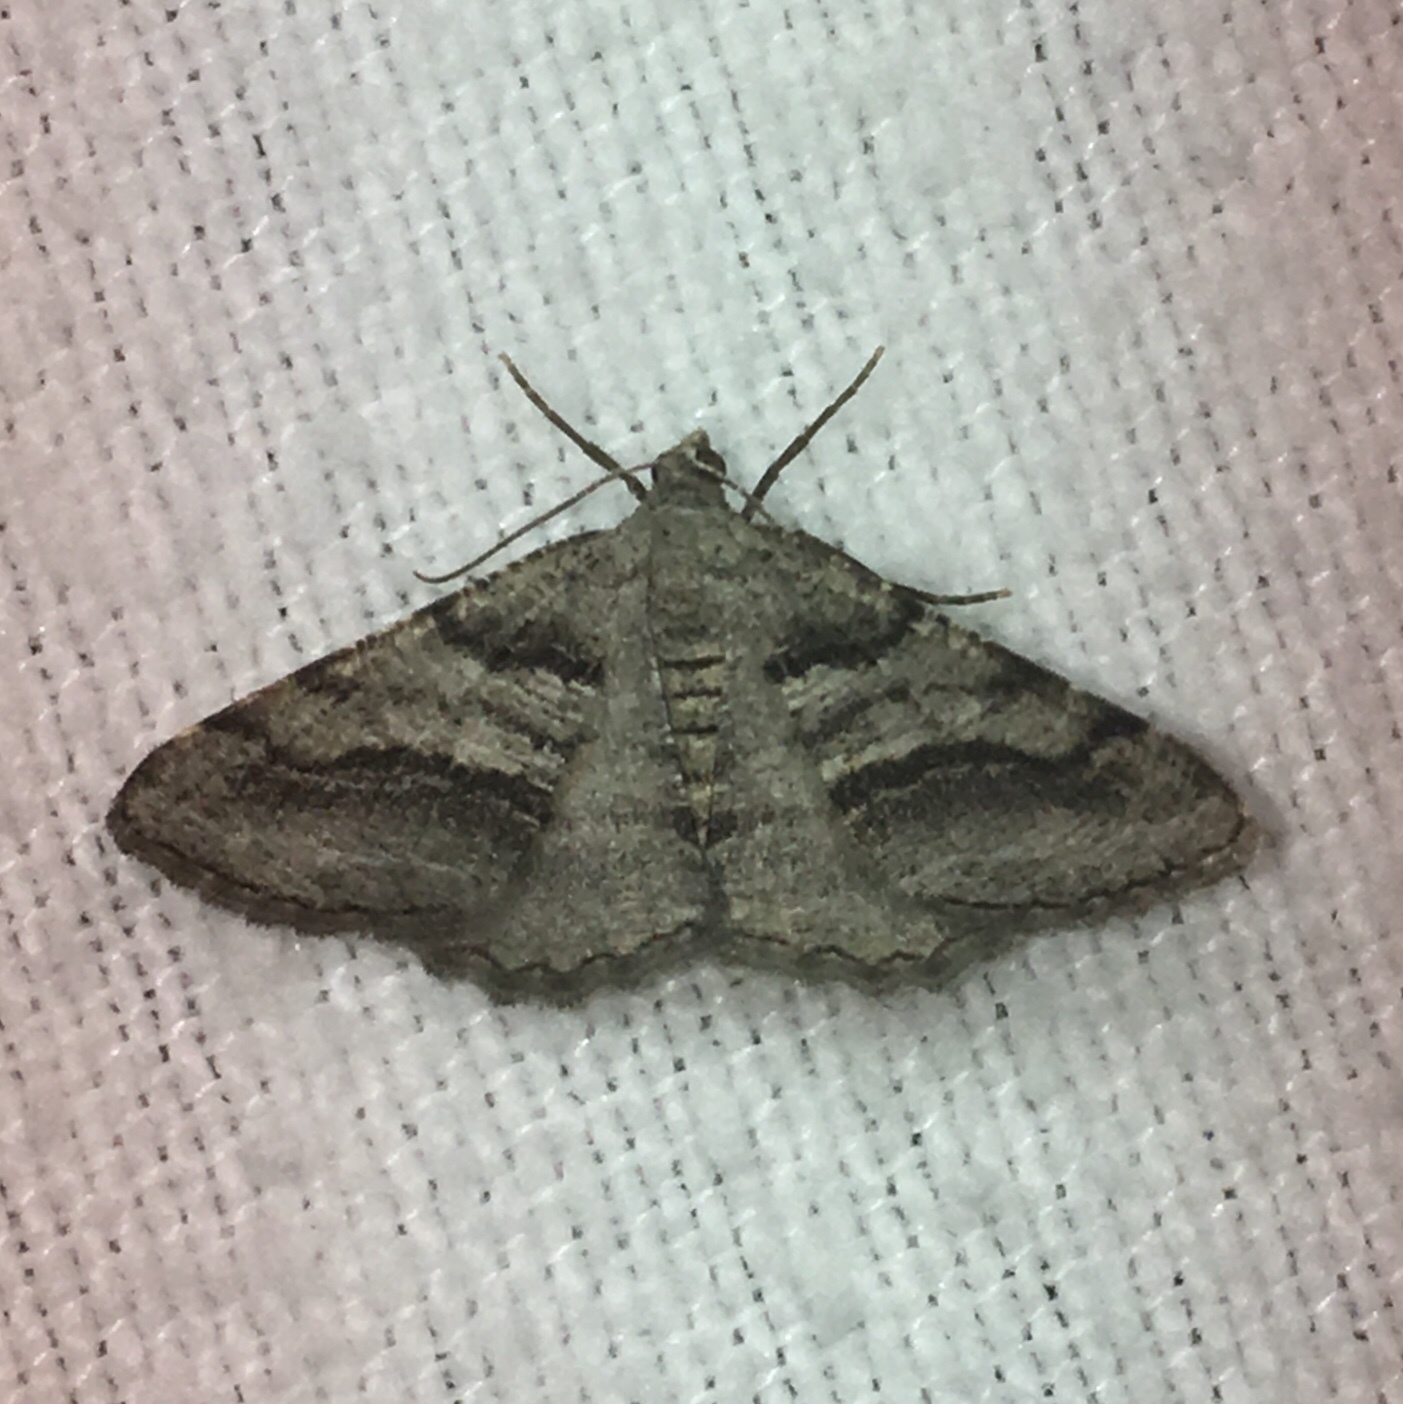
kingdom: Animalia
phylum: Arthropoda
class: Insecta
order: Lepidoptera
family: Geometridae
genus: Digrammia
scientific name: Digrammia continuata
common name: Curve-lined angle
